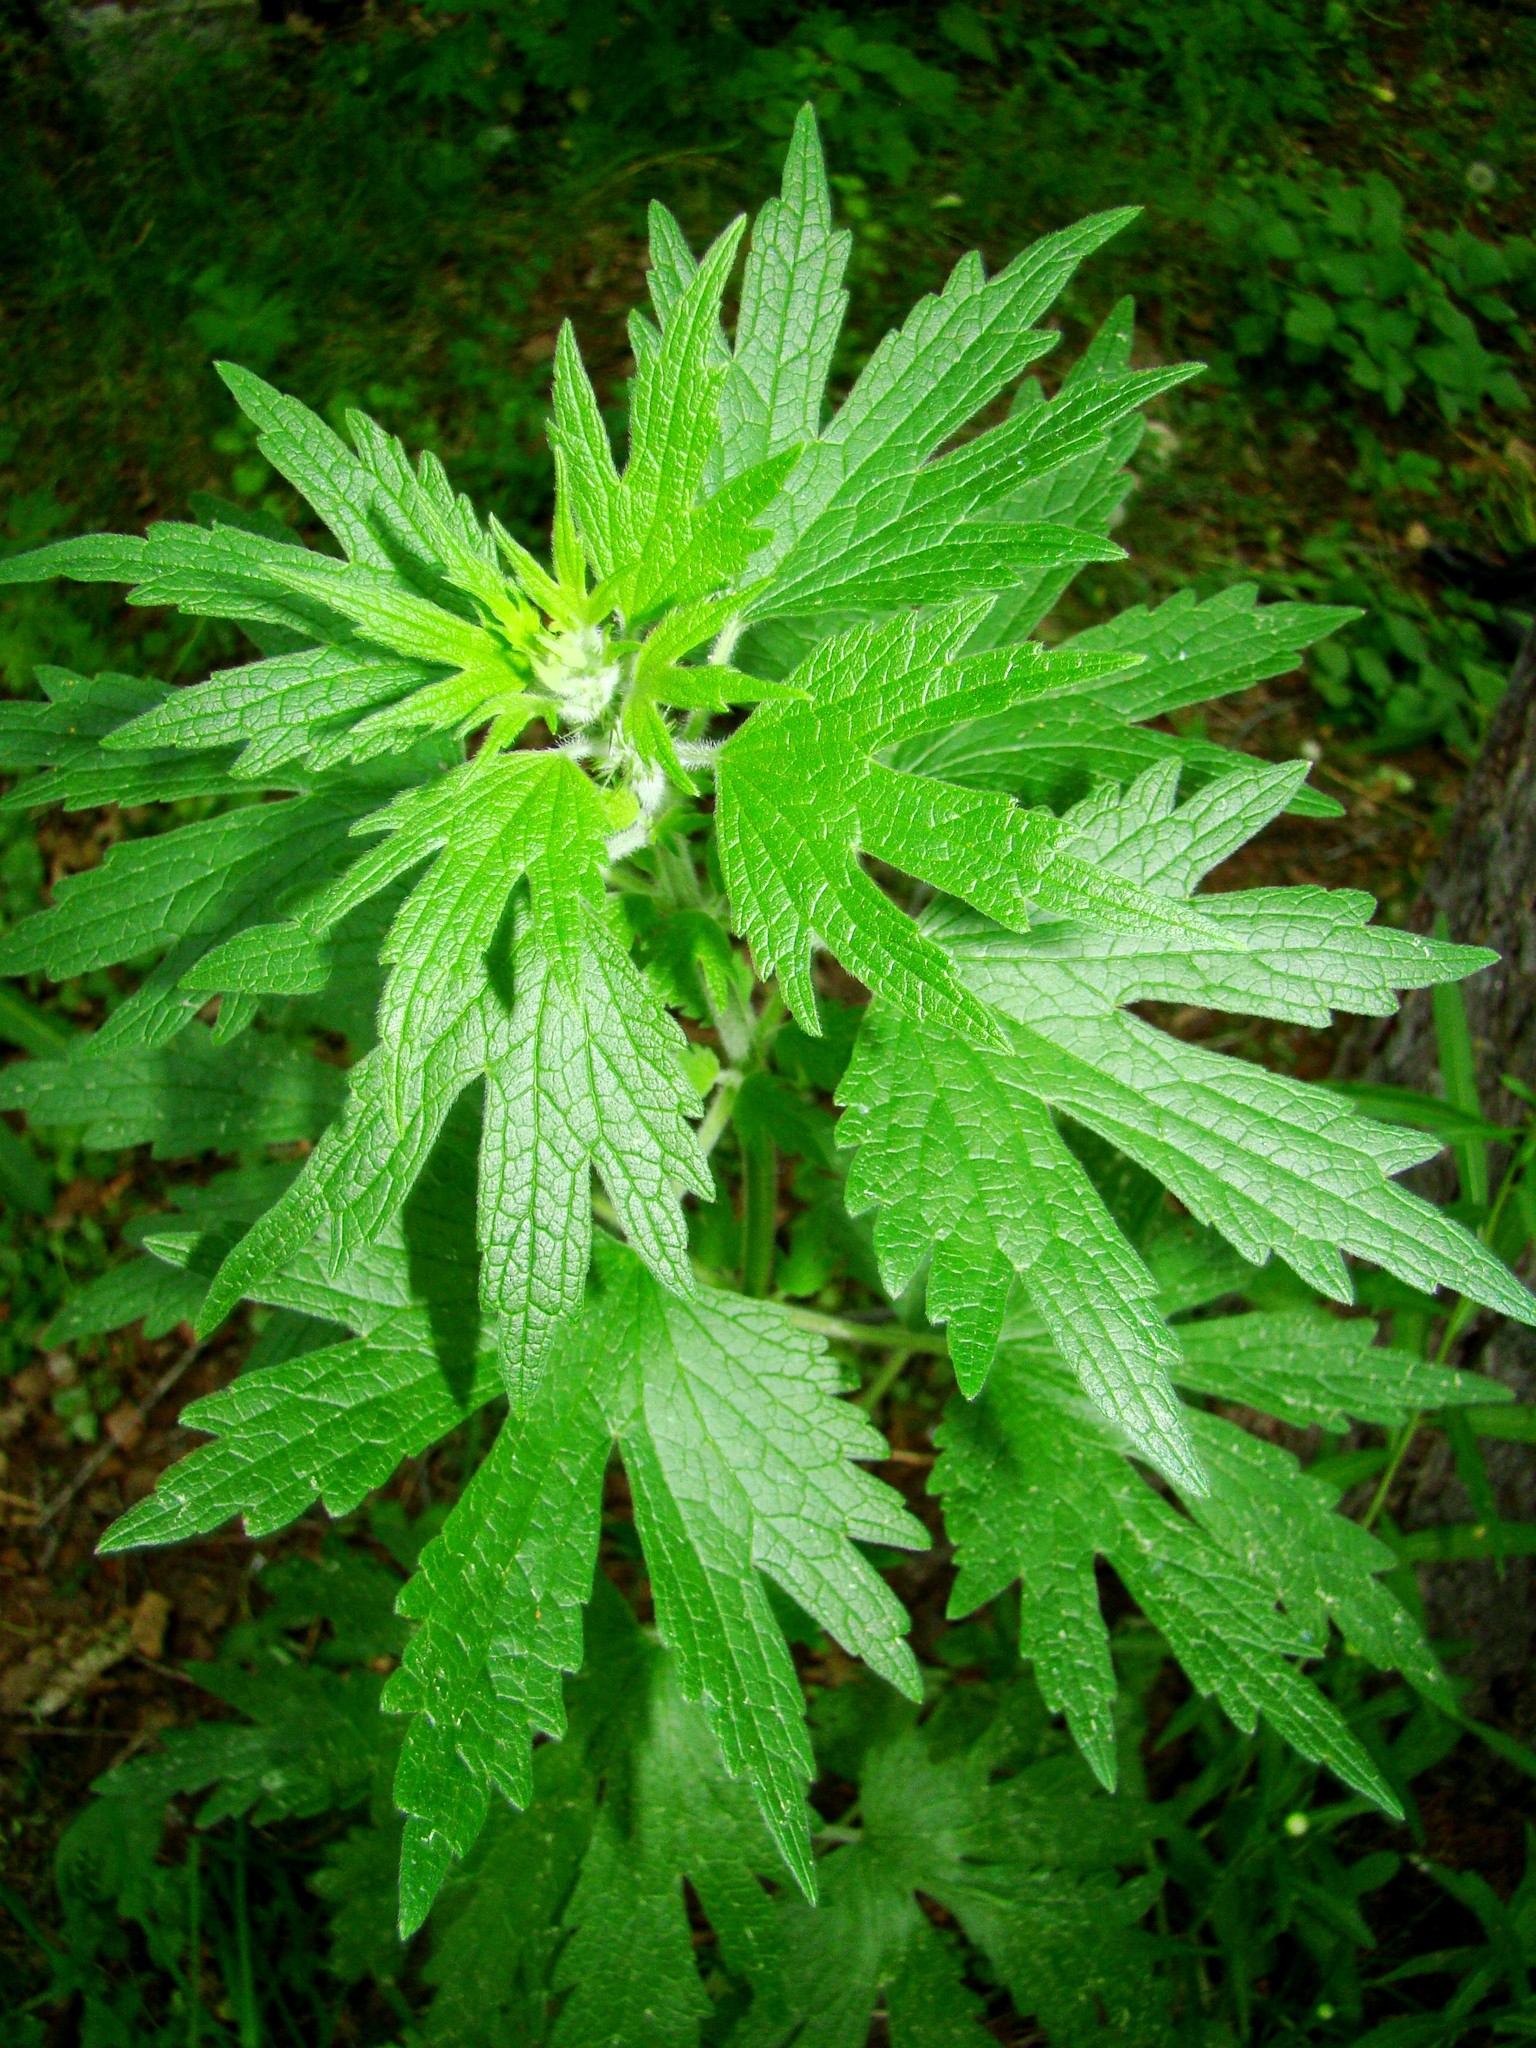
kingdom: Plantae
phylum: Tracheophyta
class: Magnoliopsida
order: Lamiales
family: Lamiaceae
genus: Leonurus
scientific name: Leonurus quinquelobatus
